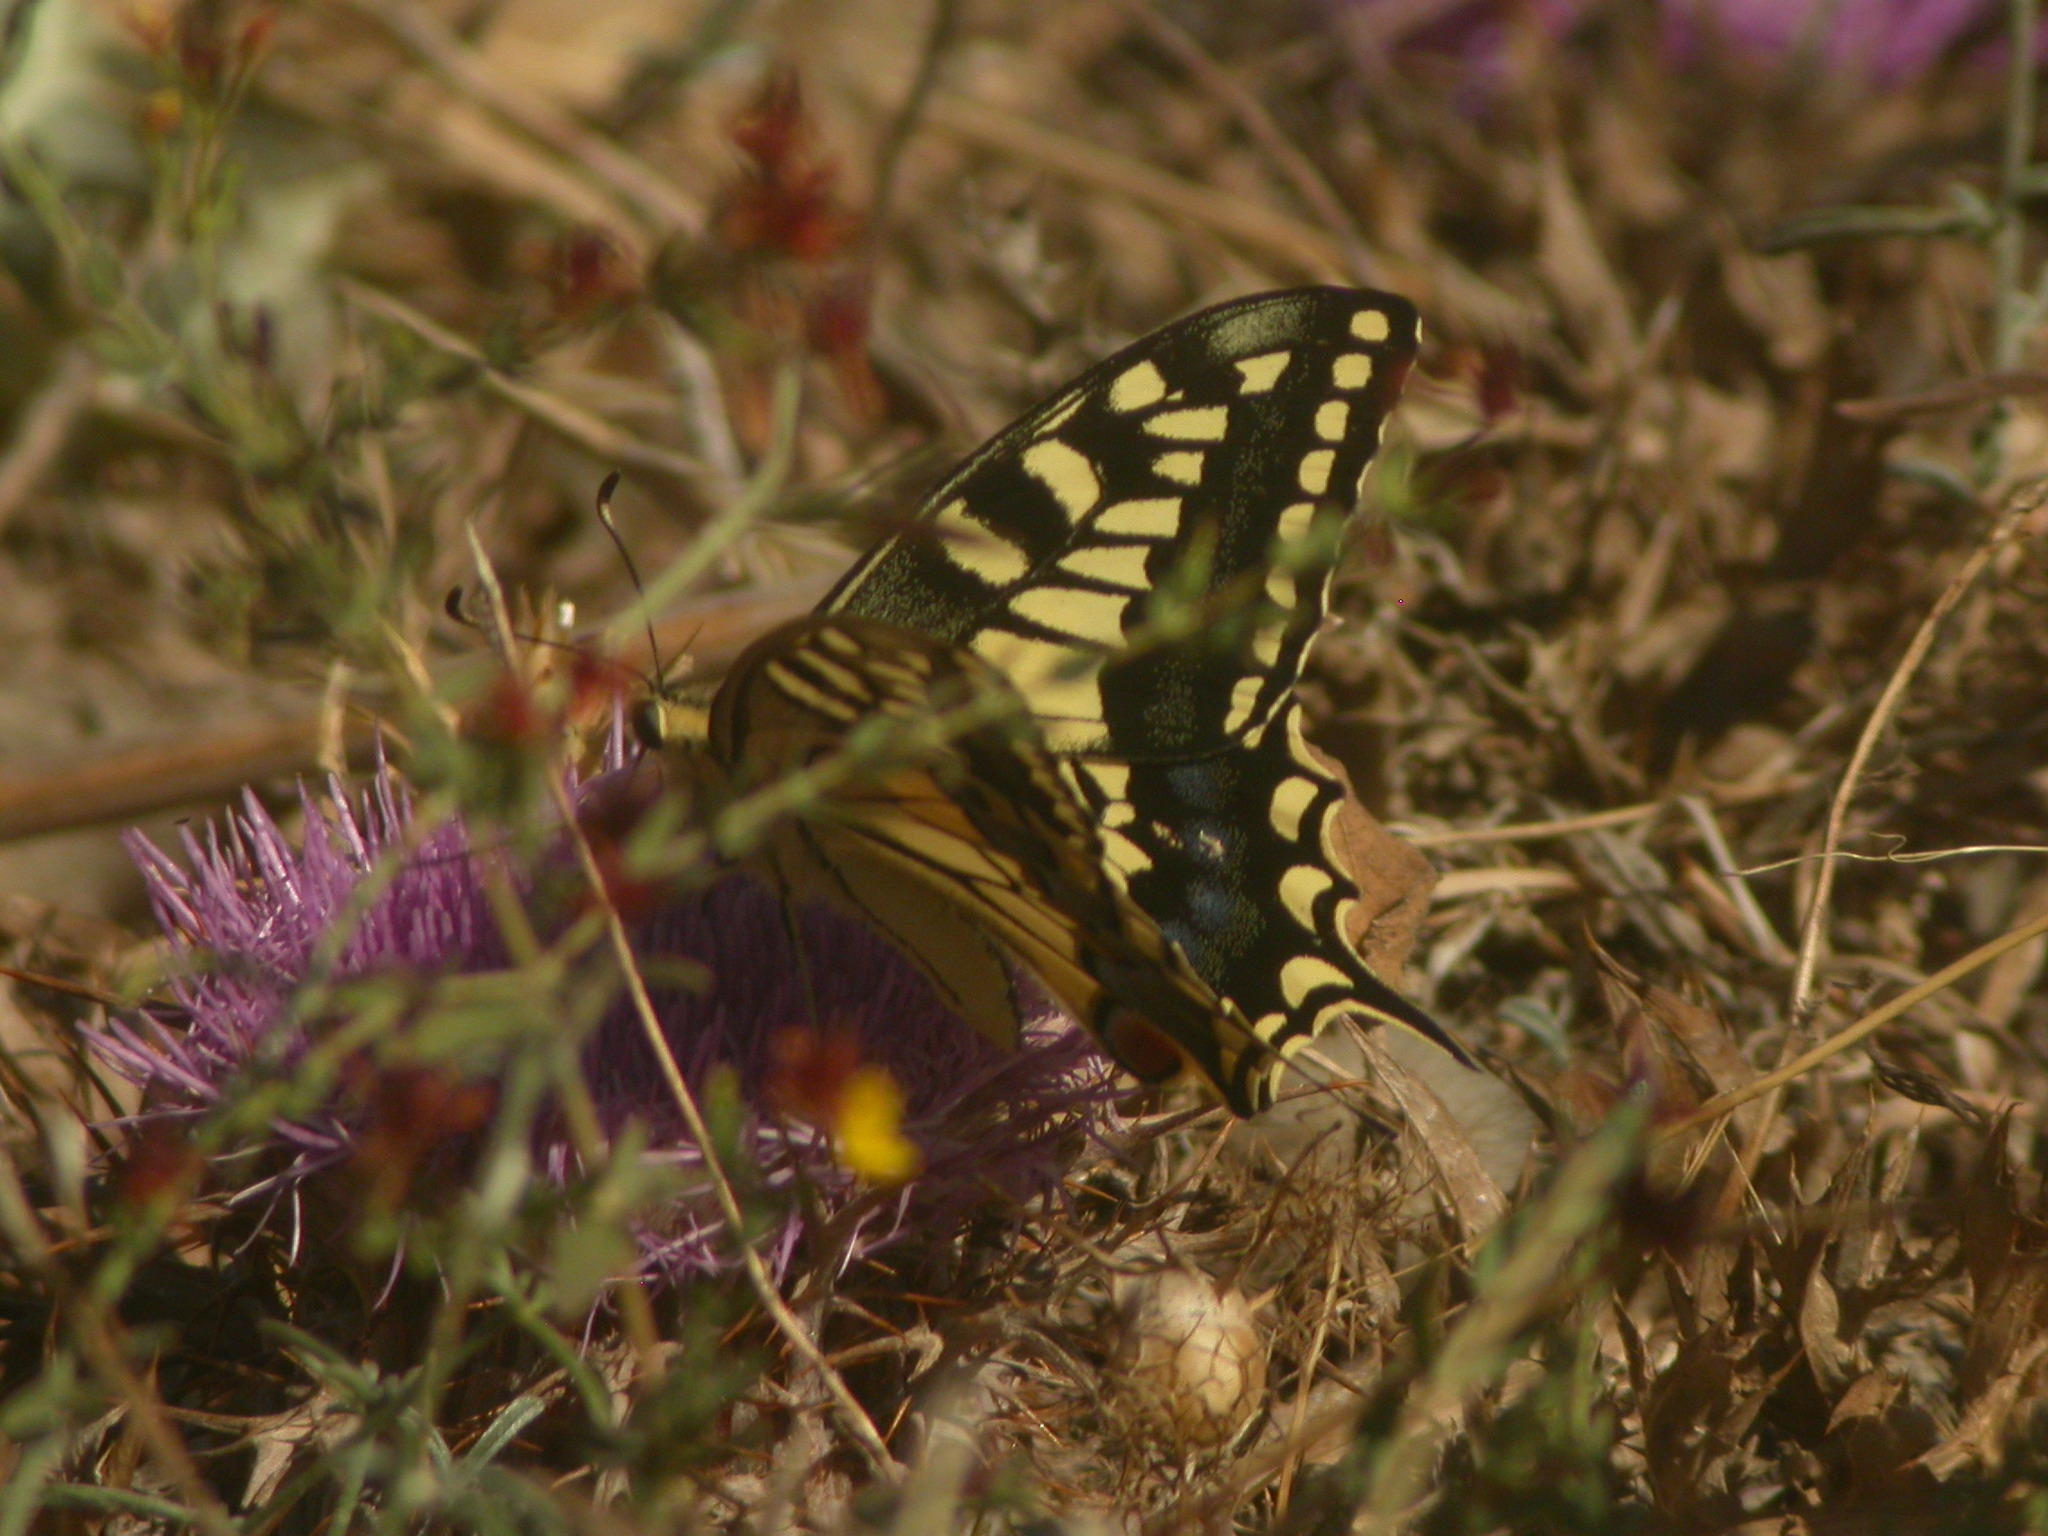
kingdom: Animalia
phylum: Arthropoda
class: Insecta
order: Lepidoptera
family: Papilionidae
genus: Papilio
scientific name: Papilio machaon
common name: Swallowtail
